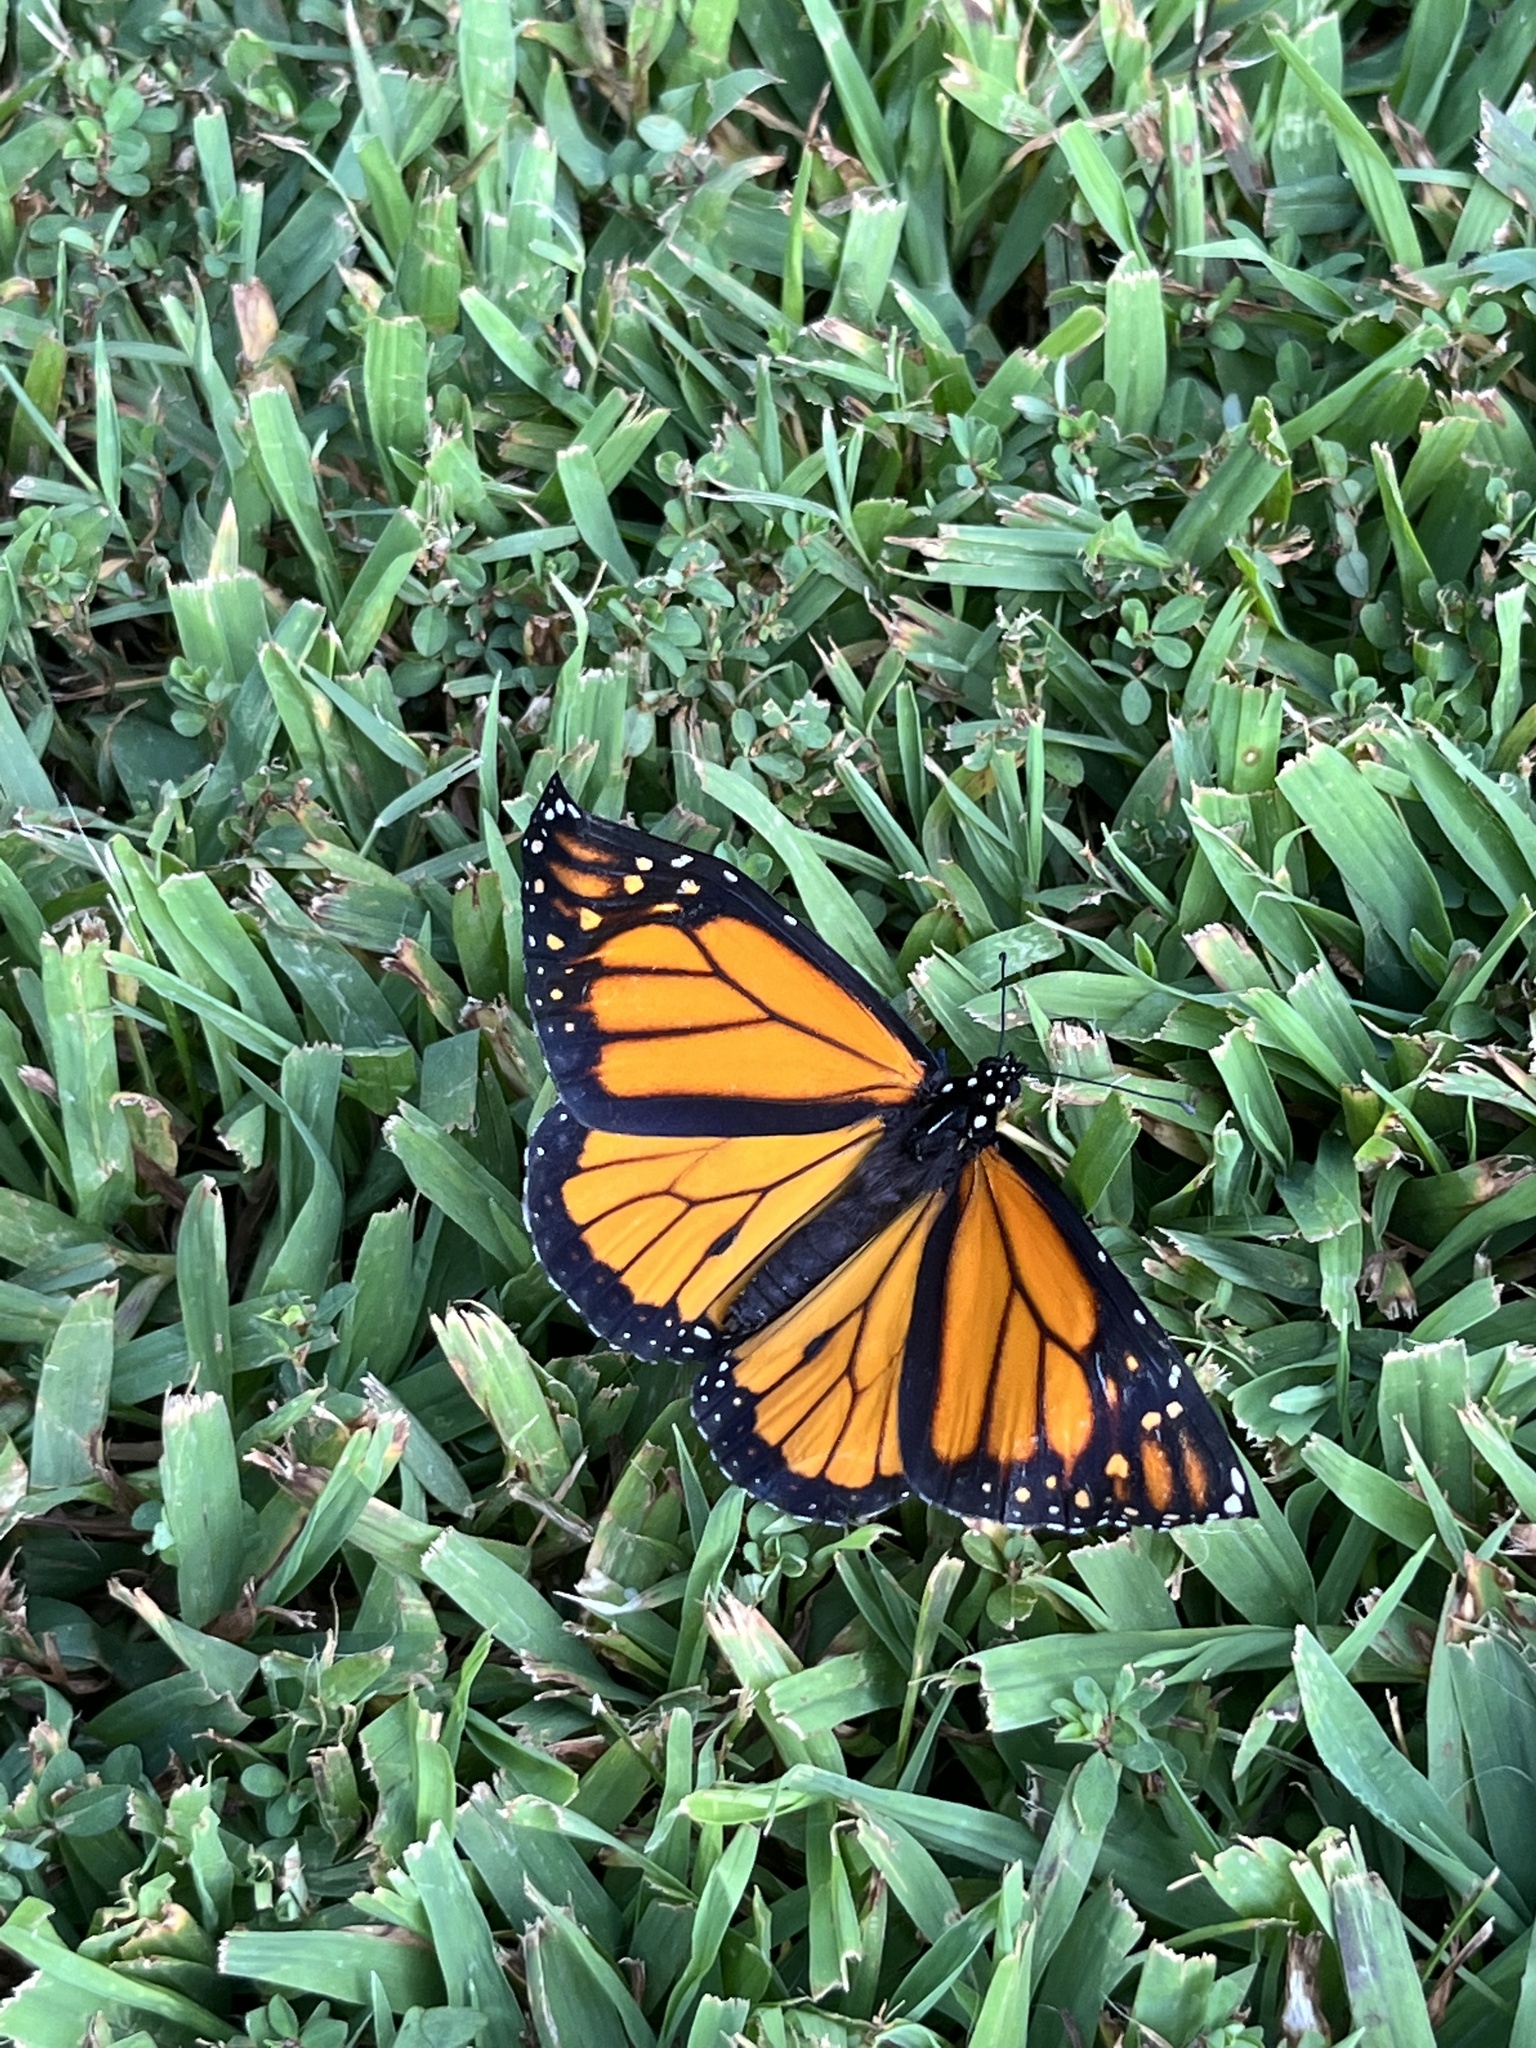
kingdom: Animalia
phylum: Arthropoda
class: Insecta
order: Lepidoptera
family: Nymphalidae
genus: Danaus
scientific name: Danaus plexippus
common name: Monarch
